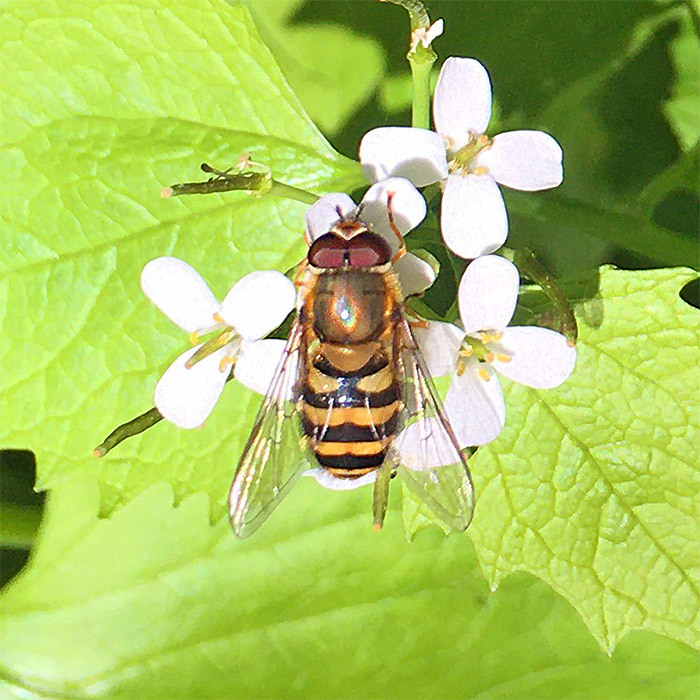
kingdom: Animalia
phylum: Arthropoda
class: Insecta
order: Diptera
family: Syrphidae
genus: Syrphus
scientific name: Syrphus
